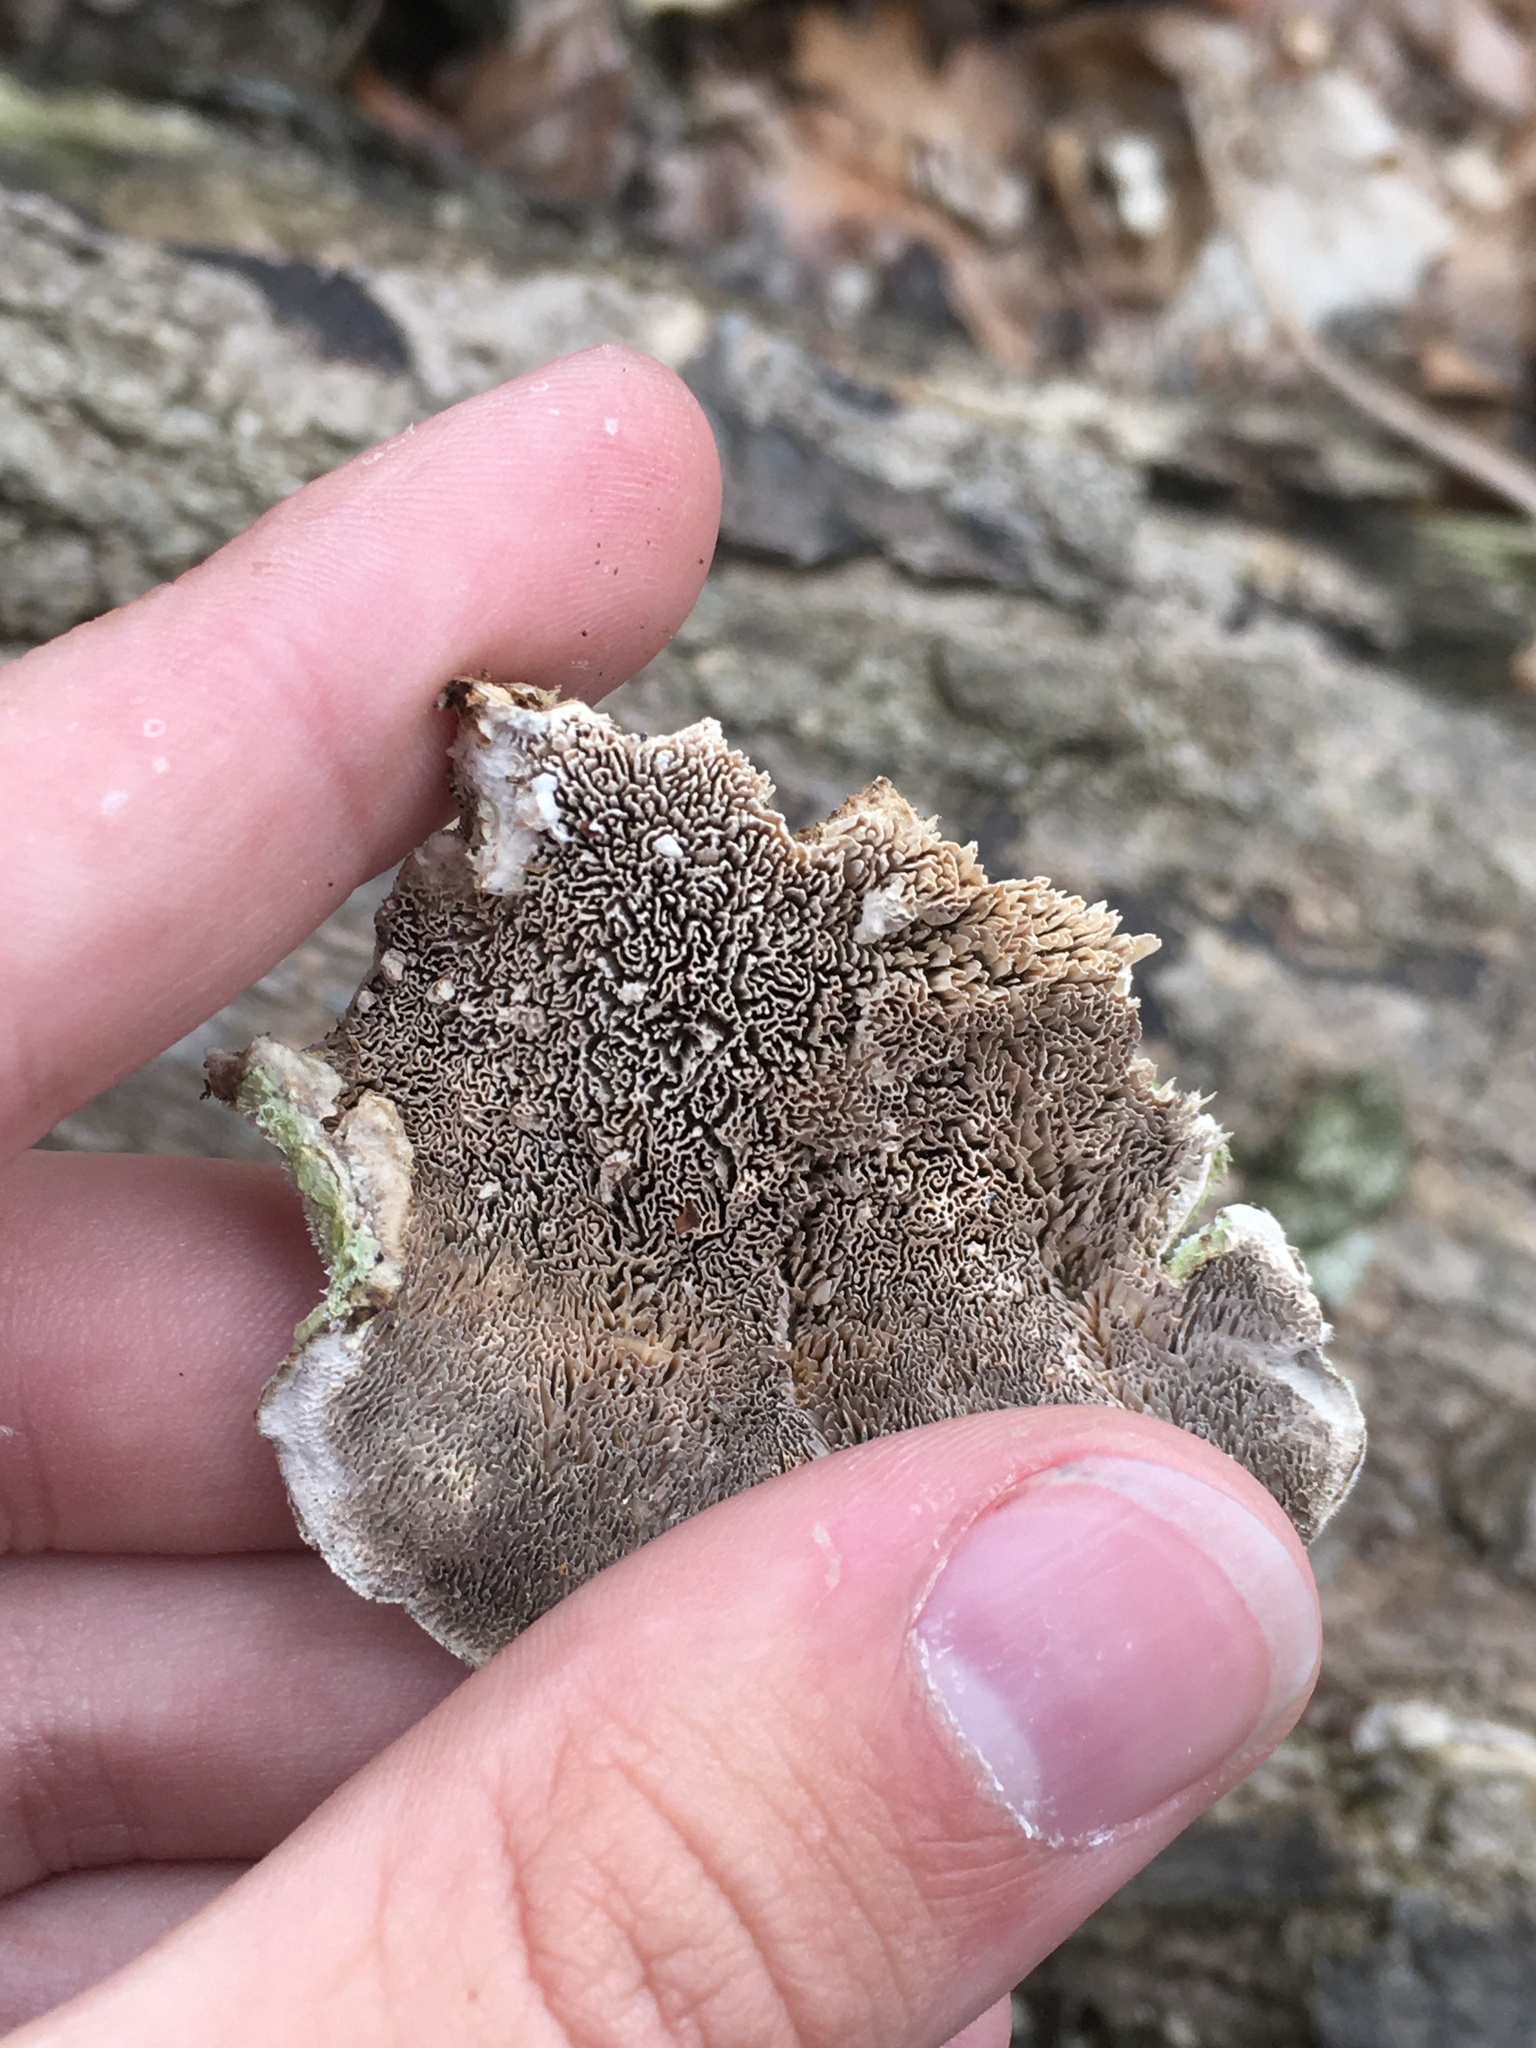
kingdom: Fungi
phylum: Basidiomycota
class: Agaricomycetes
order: Polyporales
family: Cerrenaceae
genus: Cerrena
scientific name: Cerrena unicolor
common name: Mossy maze polypore
